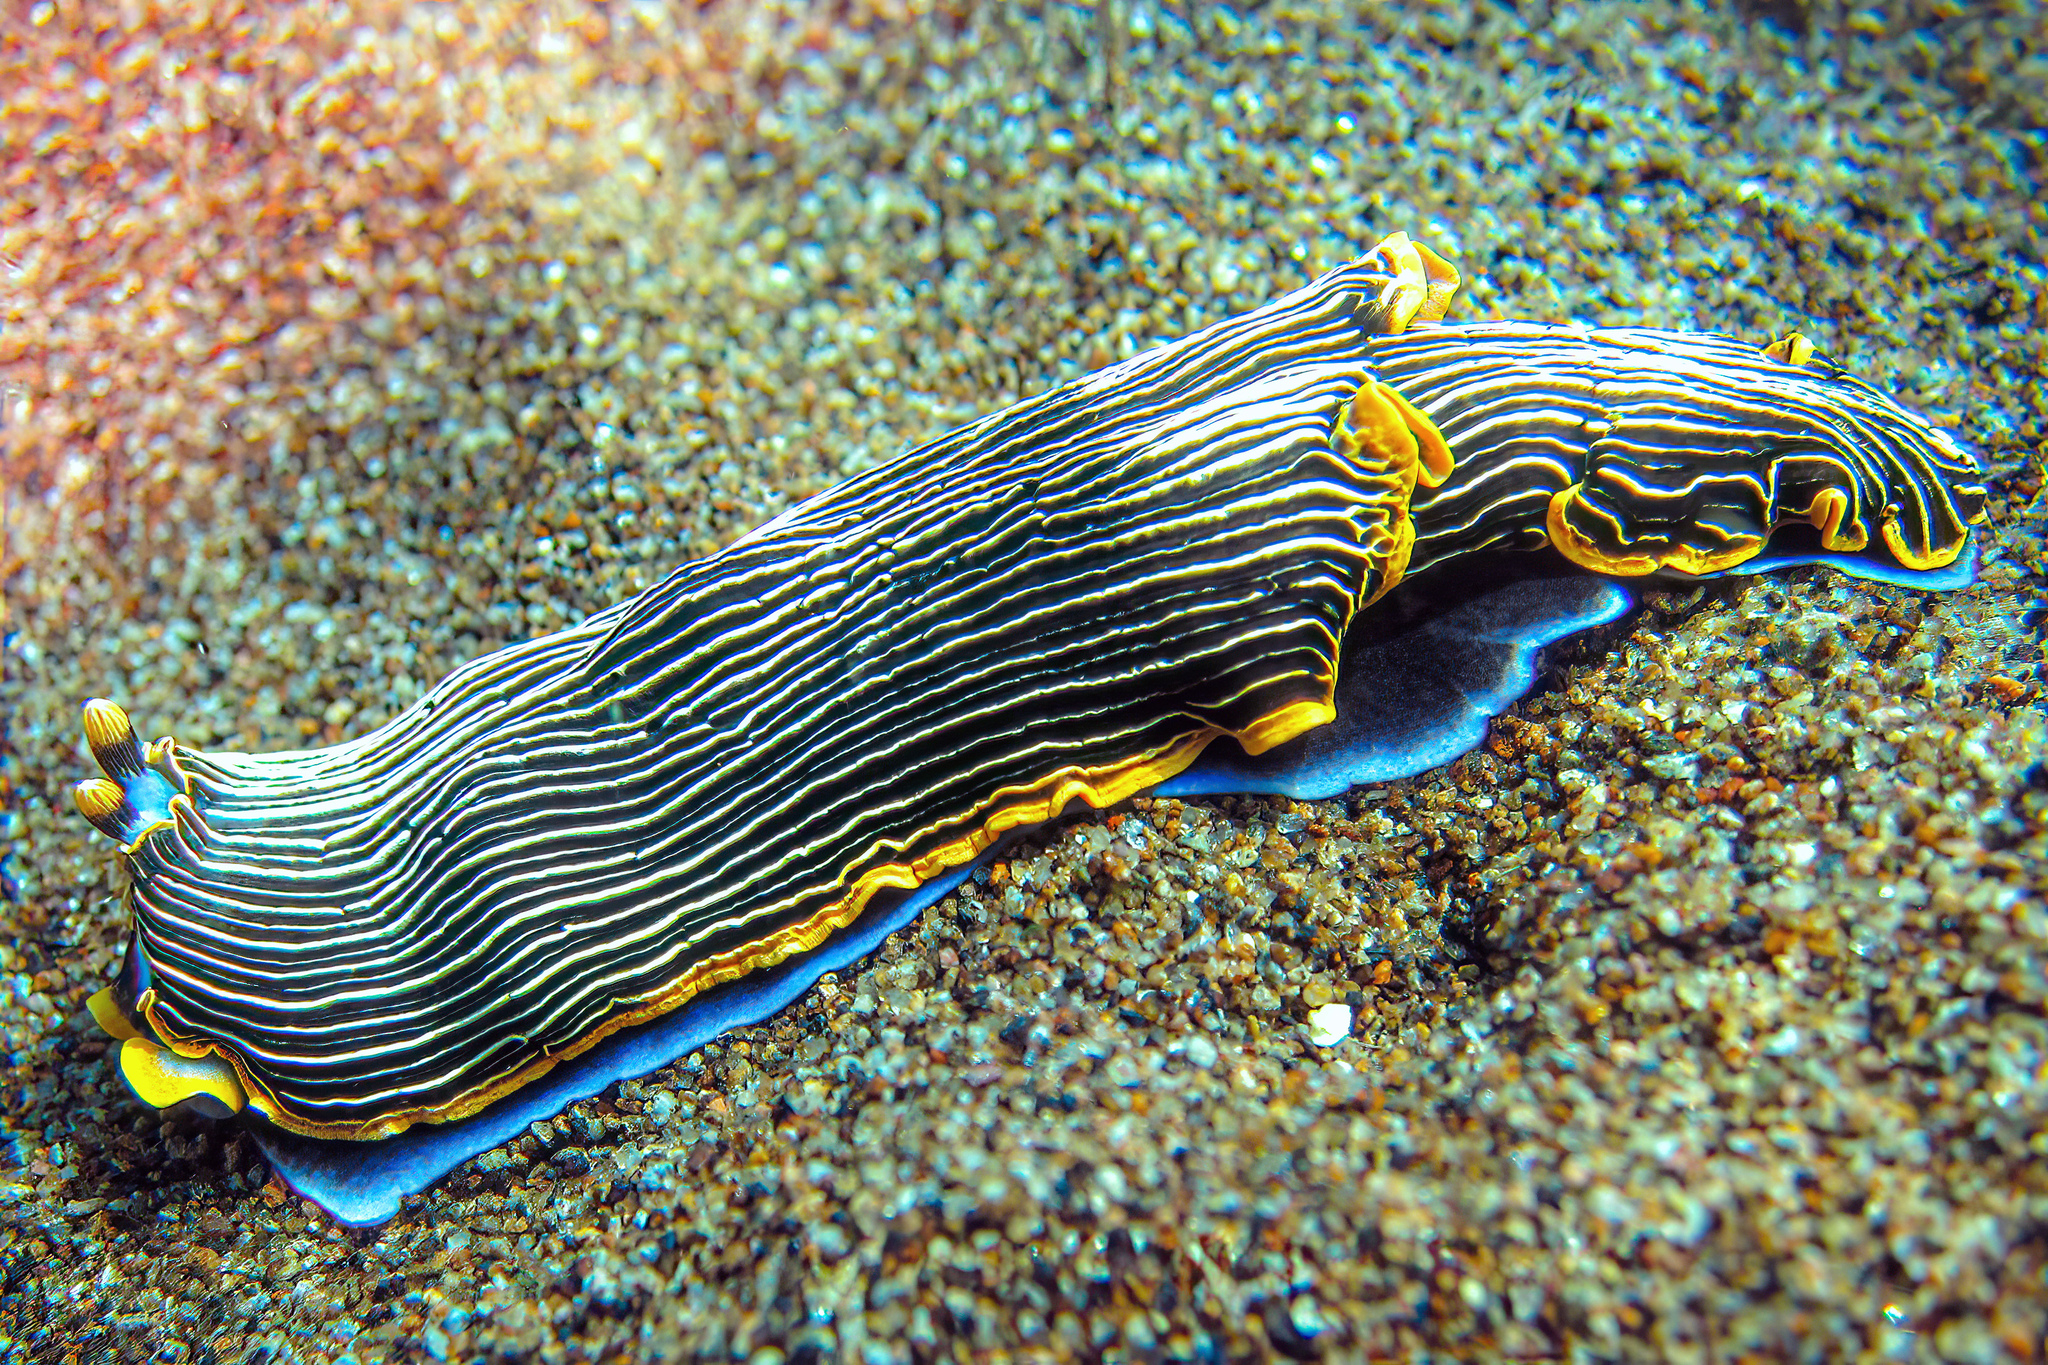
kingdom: Animalia
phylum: Mollusca
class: Gastropoda
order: Nudibranchia
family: Arminidae
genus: Armina
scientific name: Armina occulta
